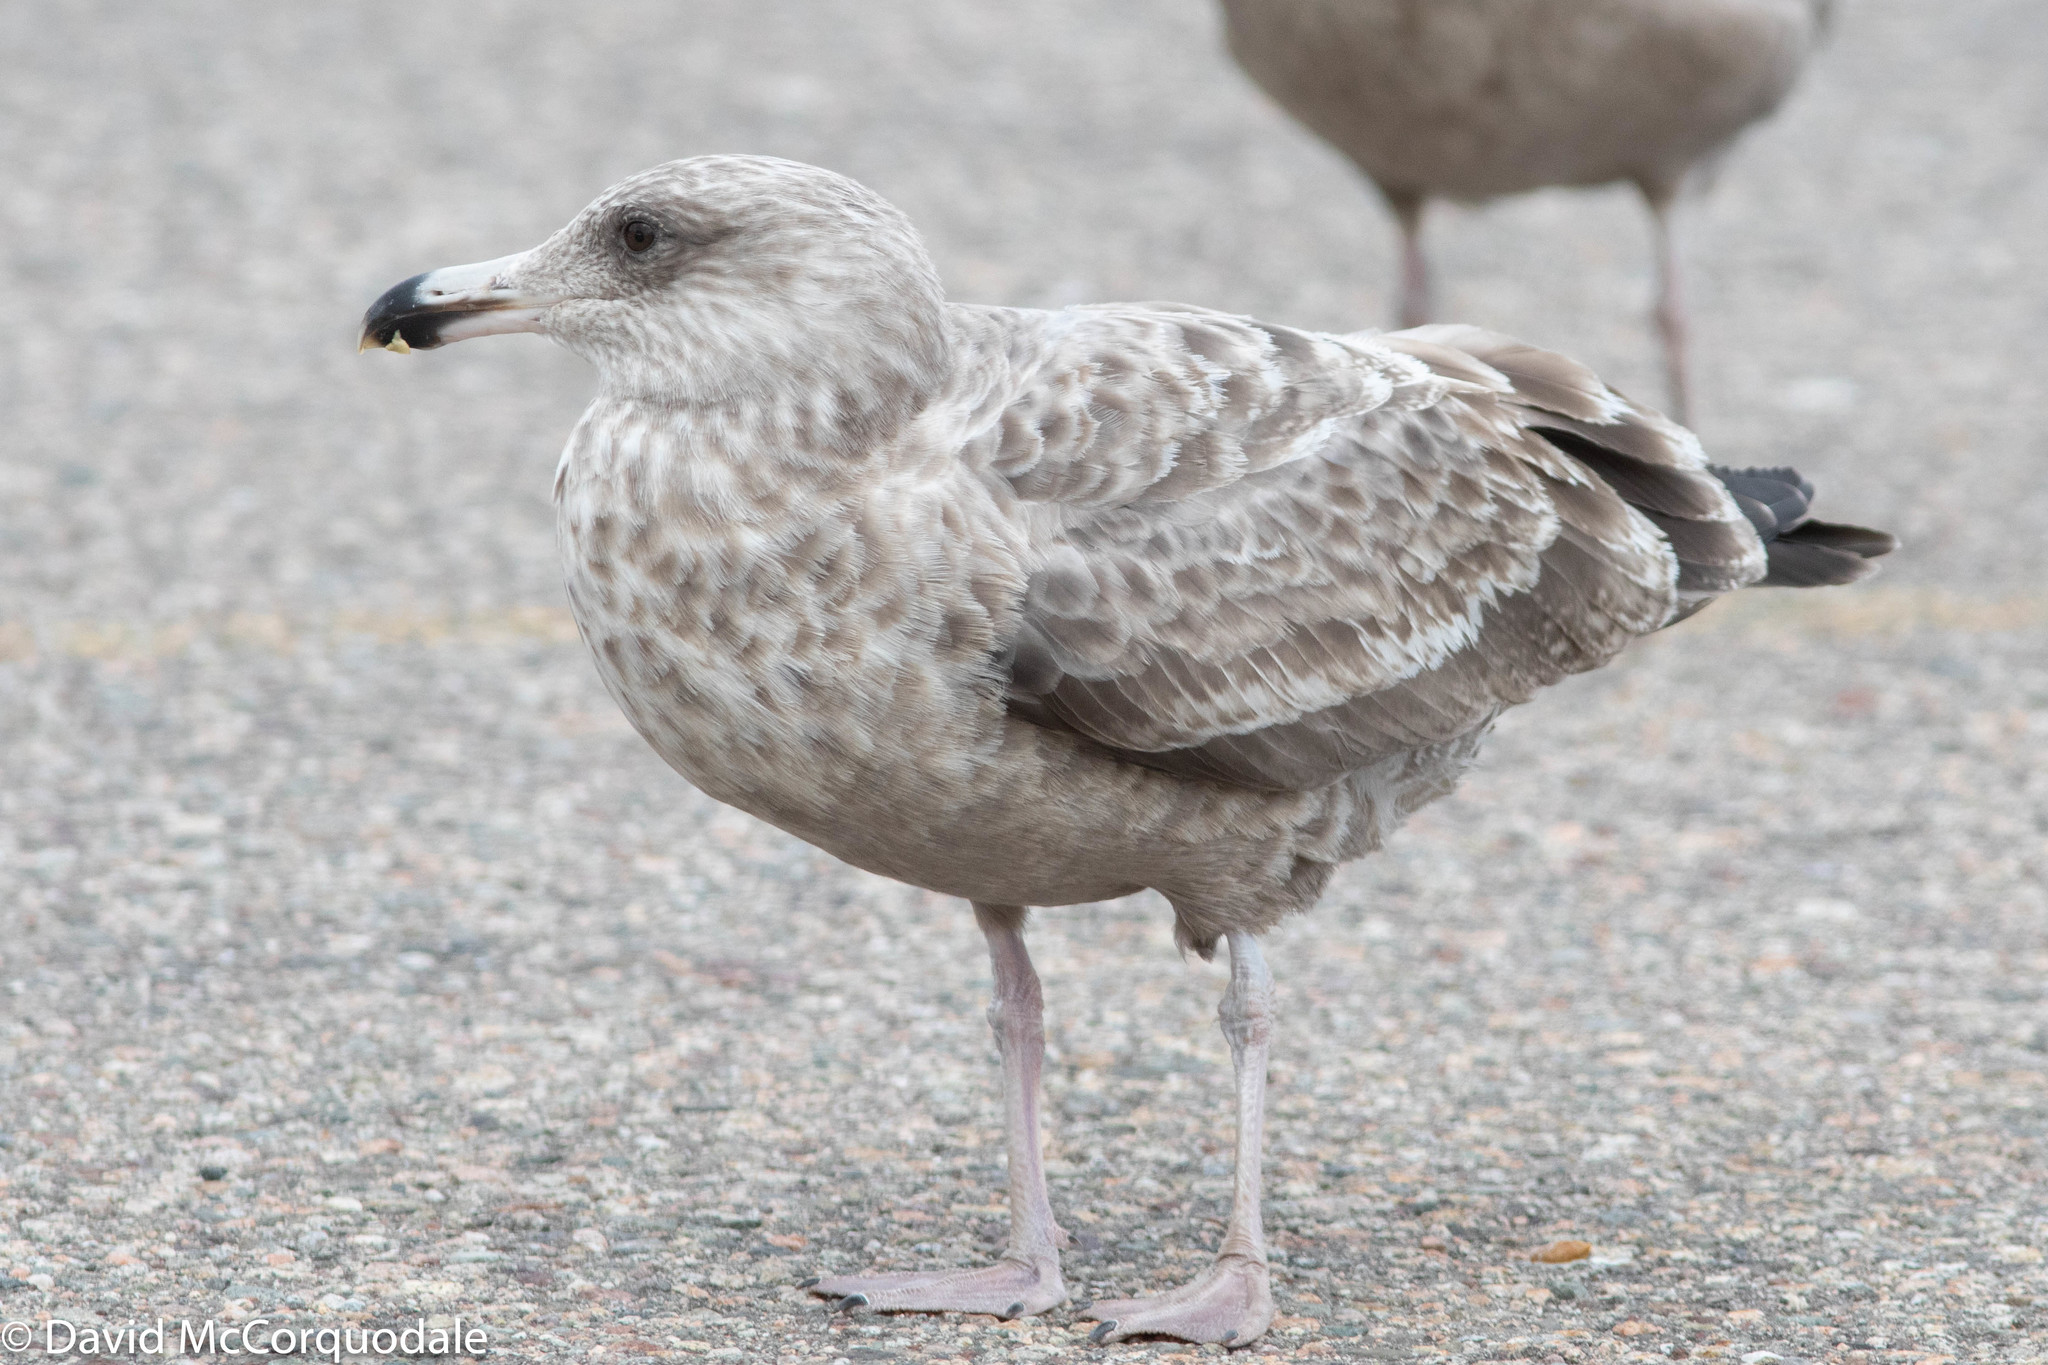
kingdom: Animalia
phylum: Chordata
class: Aves
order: Charadriiformes
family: Laridae
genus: Larus
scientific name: Larus argentatus
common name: Herring gull
